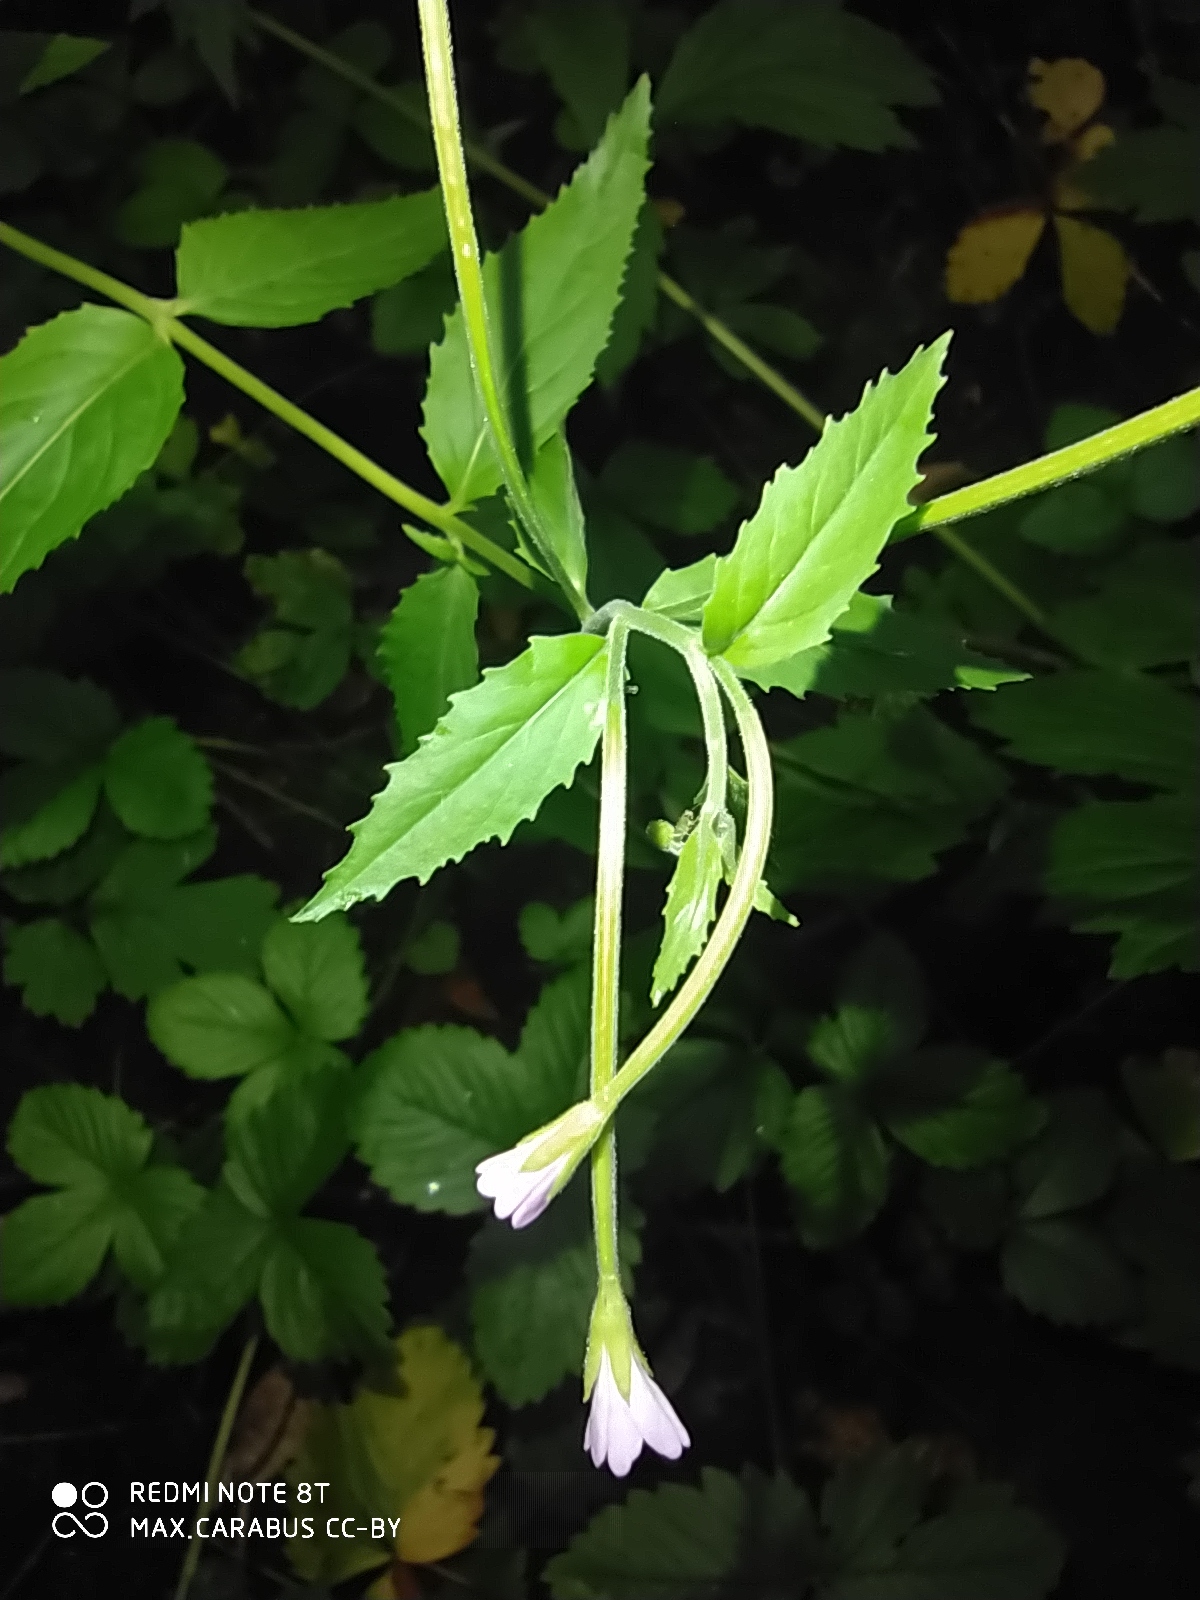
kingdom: Plantae
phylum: Tracheophyta
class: Magnoliopsida
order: Myrtales
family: Onagraceae
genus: Epilobium
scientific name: Epilobium montanum
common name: Broad-leaved willowherb
